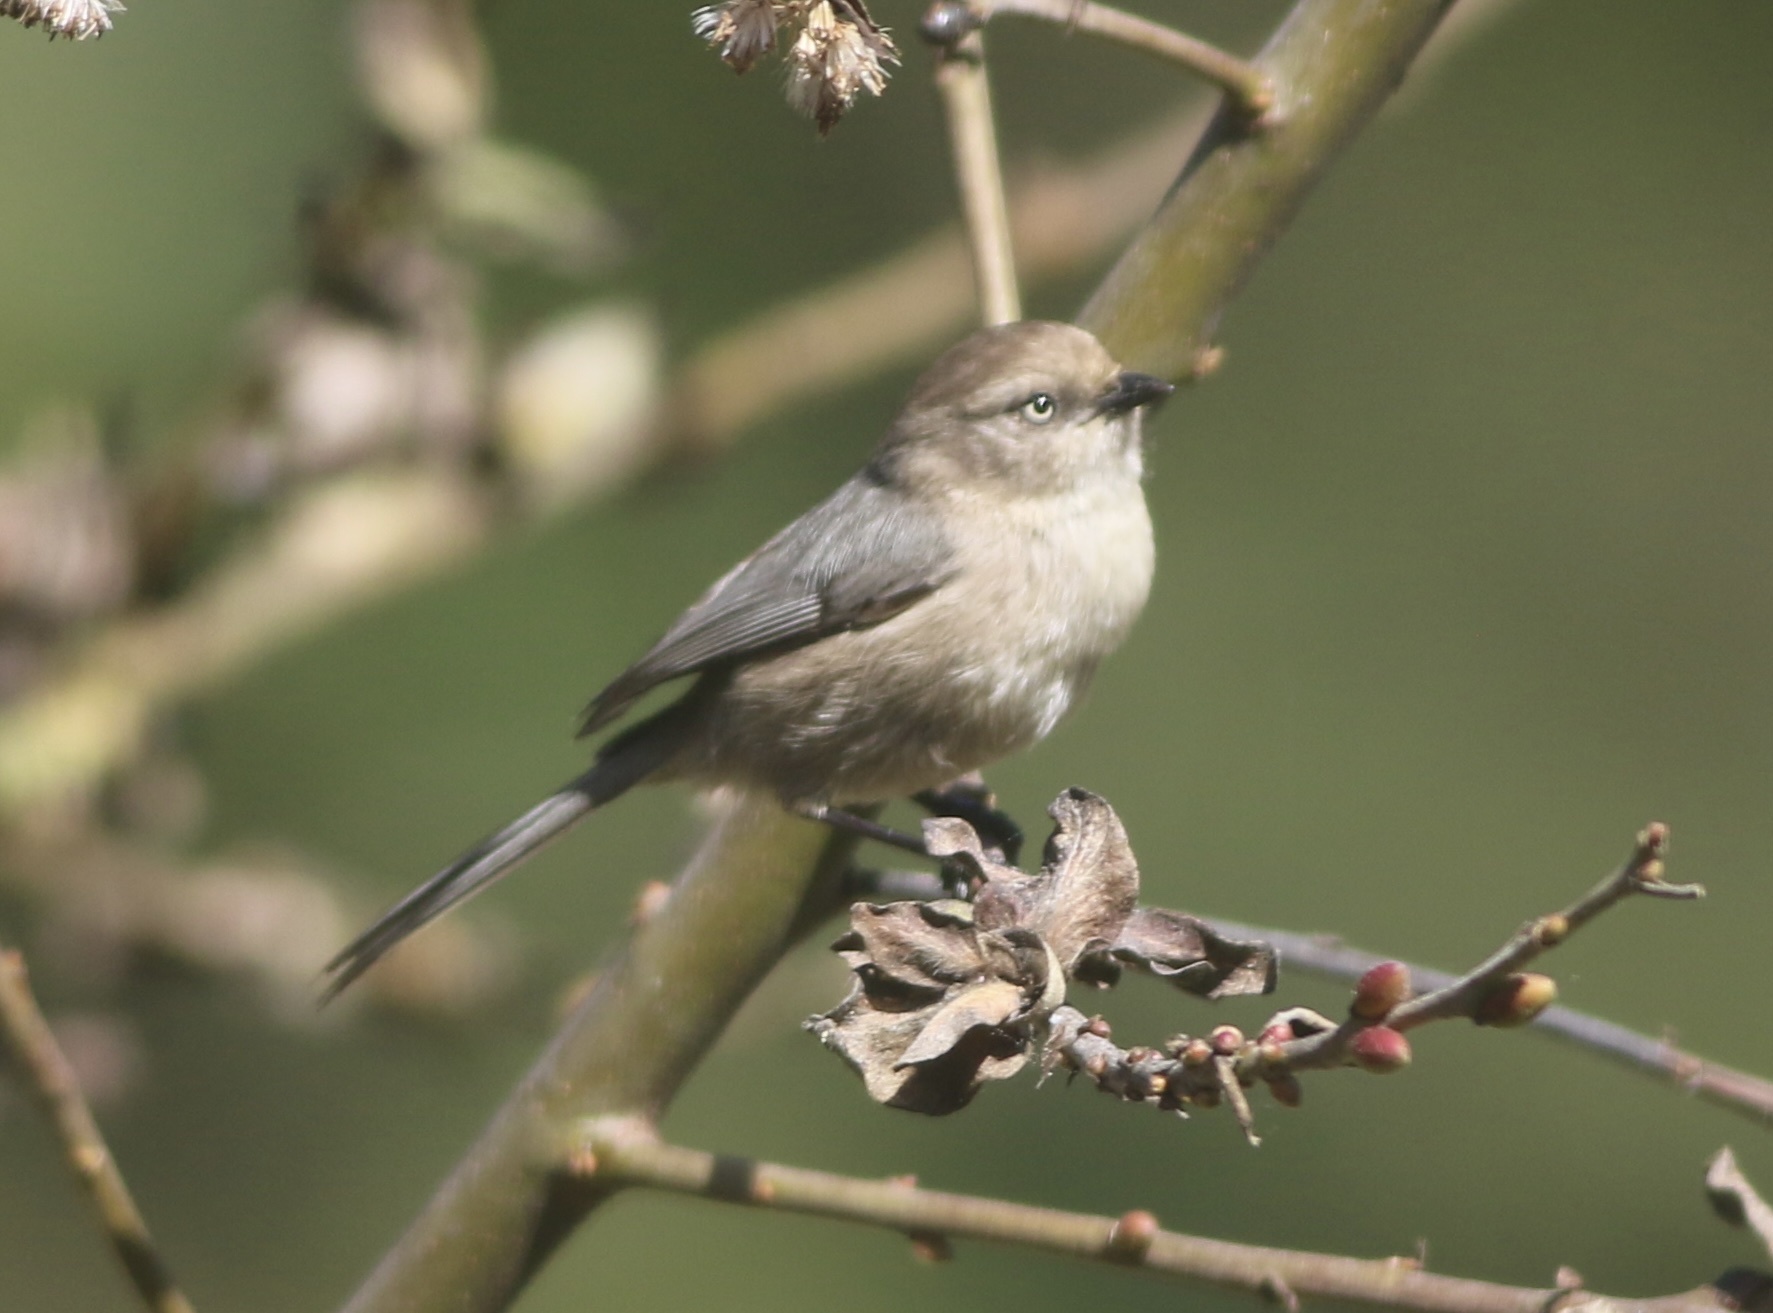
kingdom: Animalia
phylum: Chordata
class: Aves
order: Passeriformes
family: Aegithalidae
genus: Psaltriparus
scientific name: Psaltriparus minimus
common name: American bushtit
